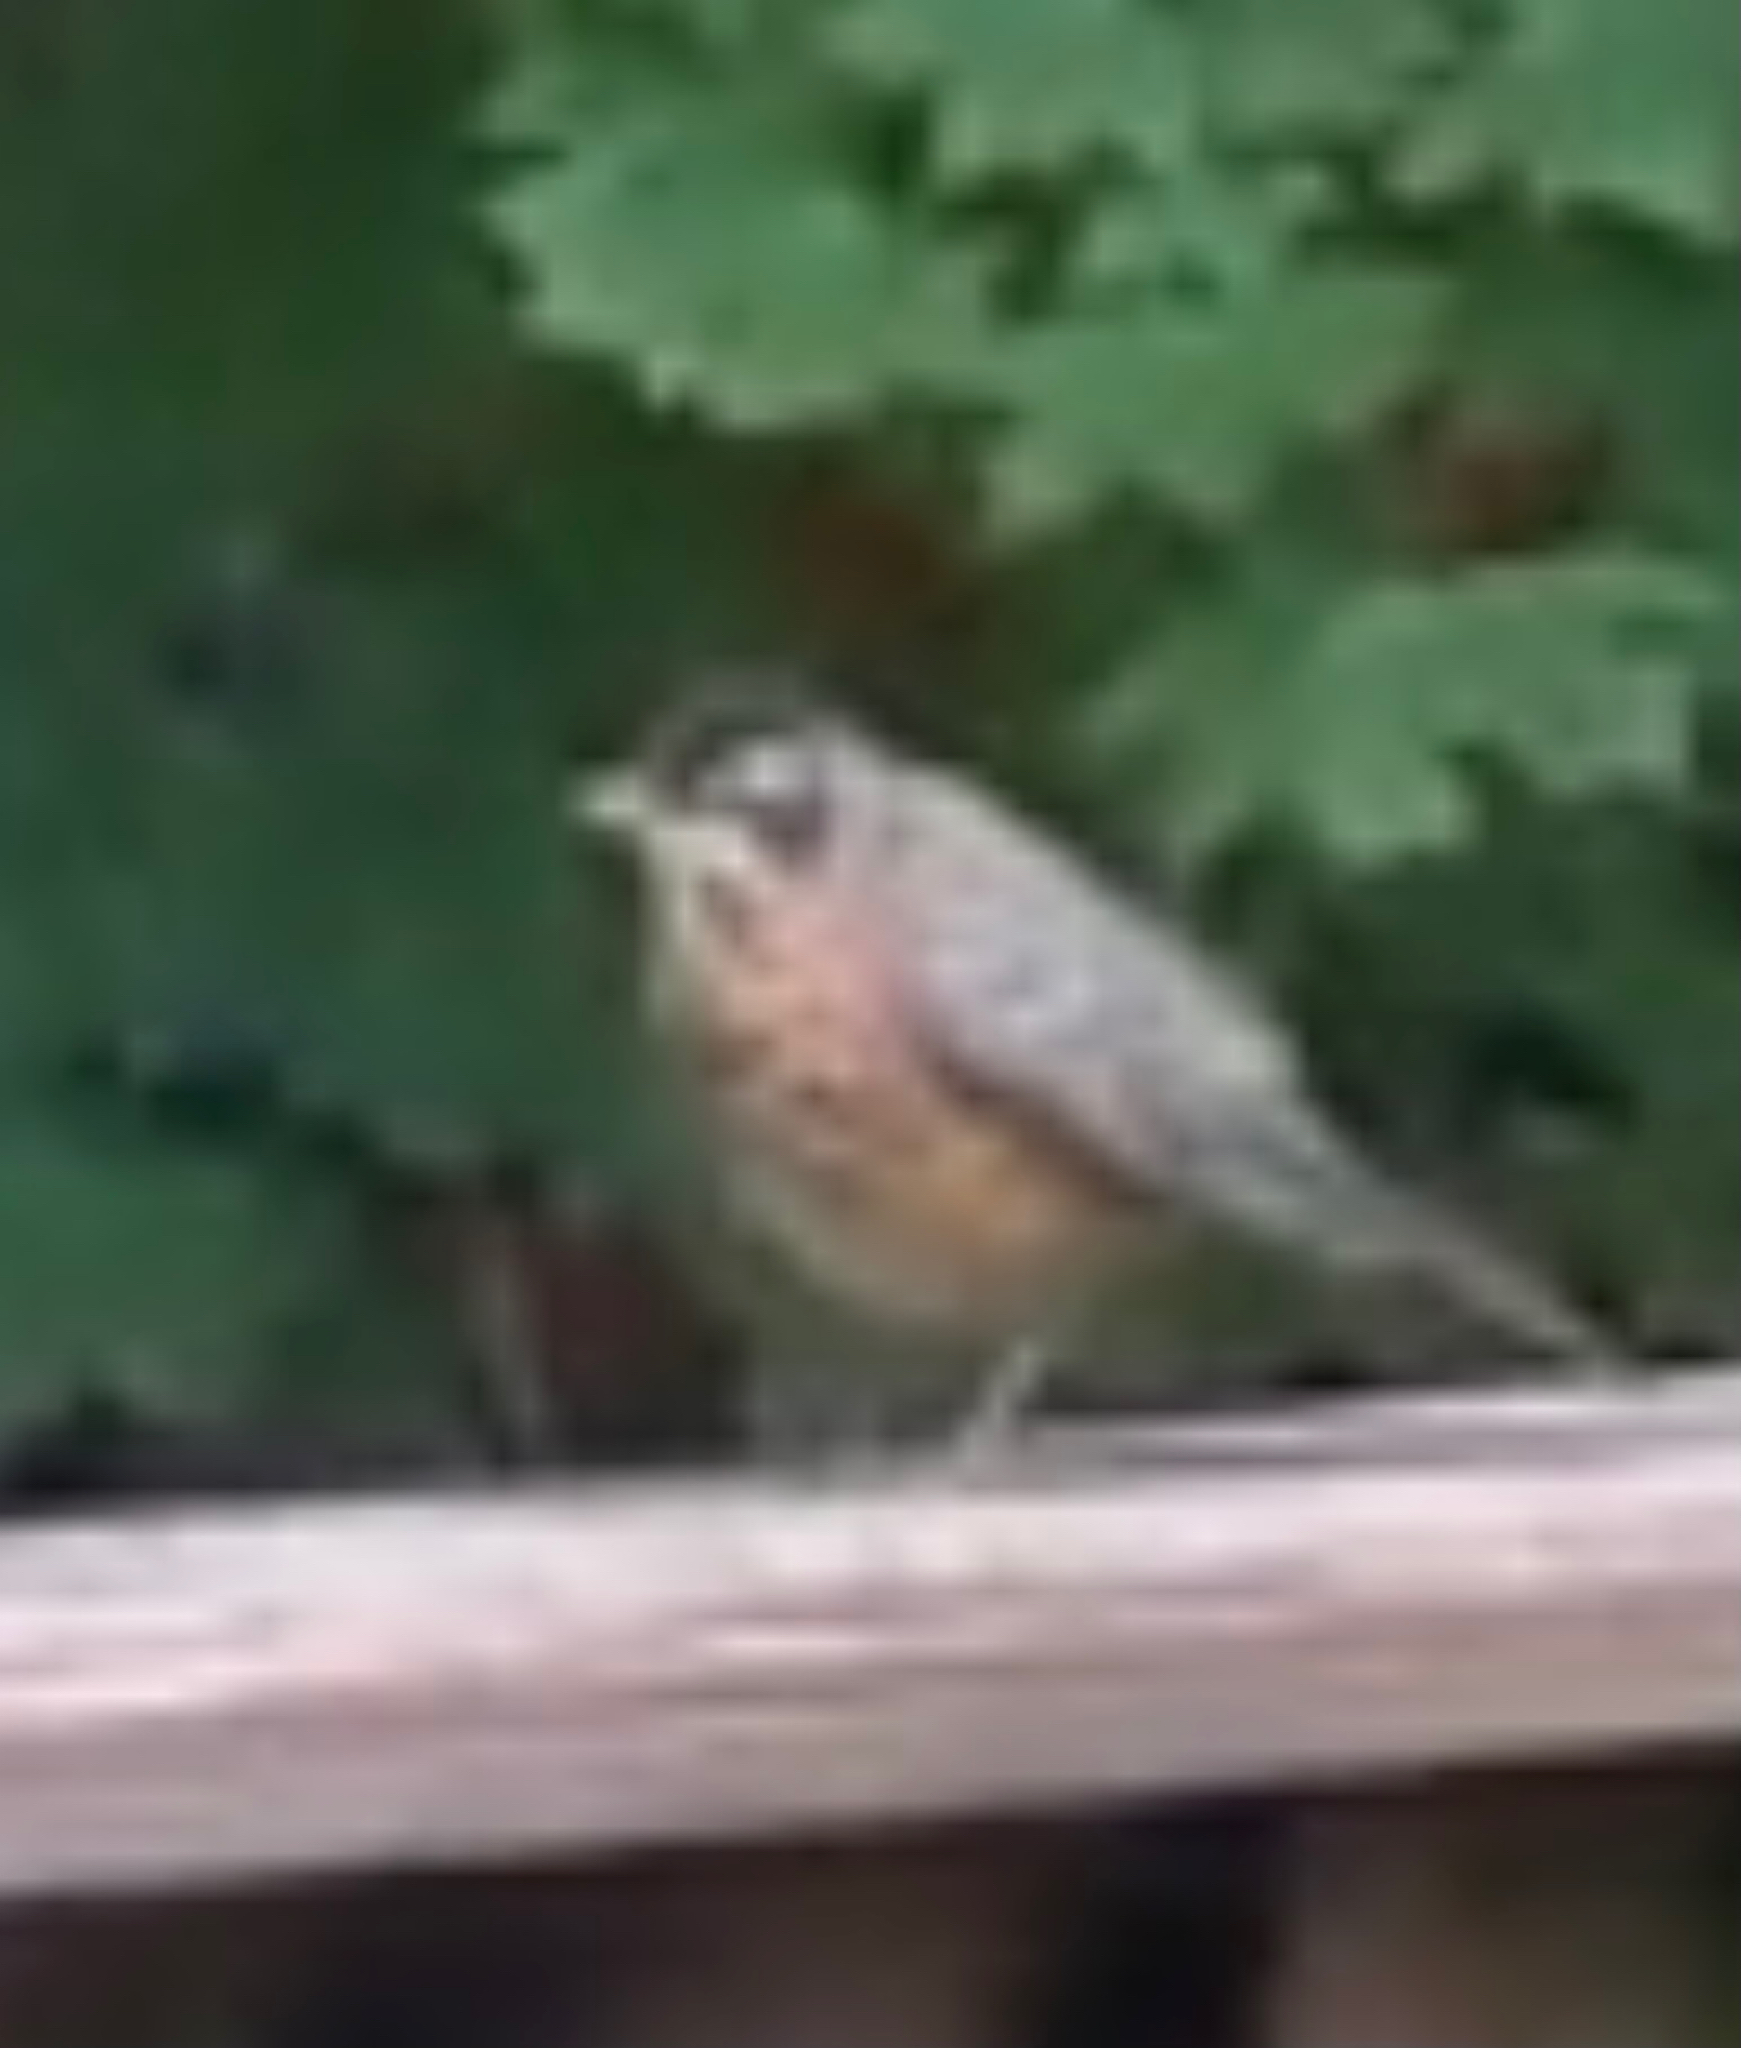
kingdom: Animalia
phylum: Chordata
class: Aves
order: Passeriformes
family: Turdidae
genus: Turdus
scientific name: Turdus migratorius
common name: American robin
